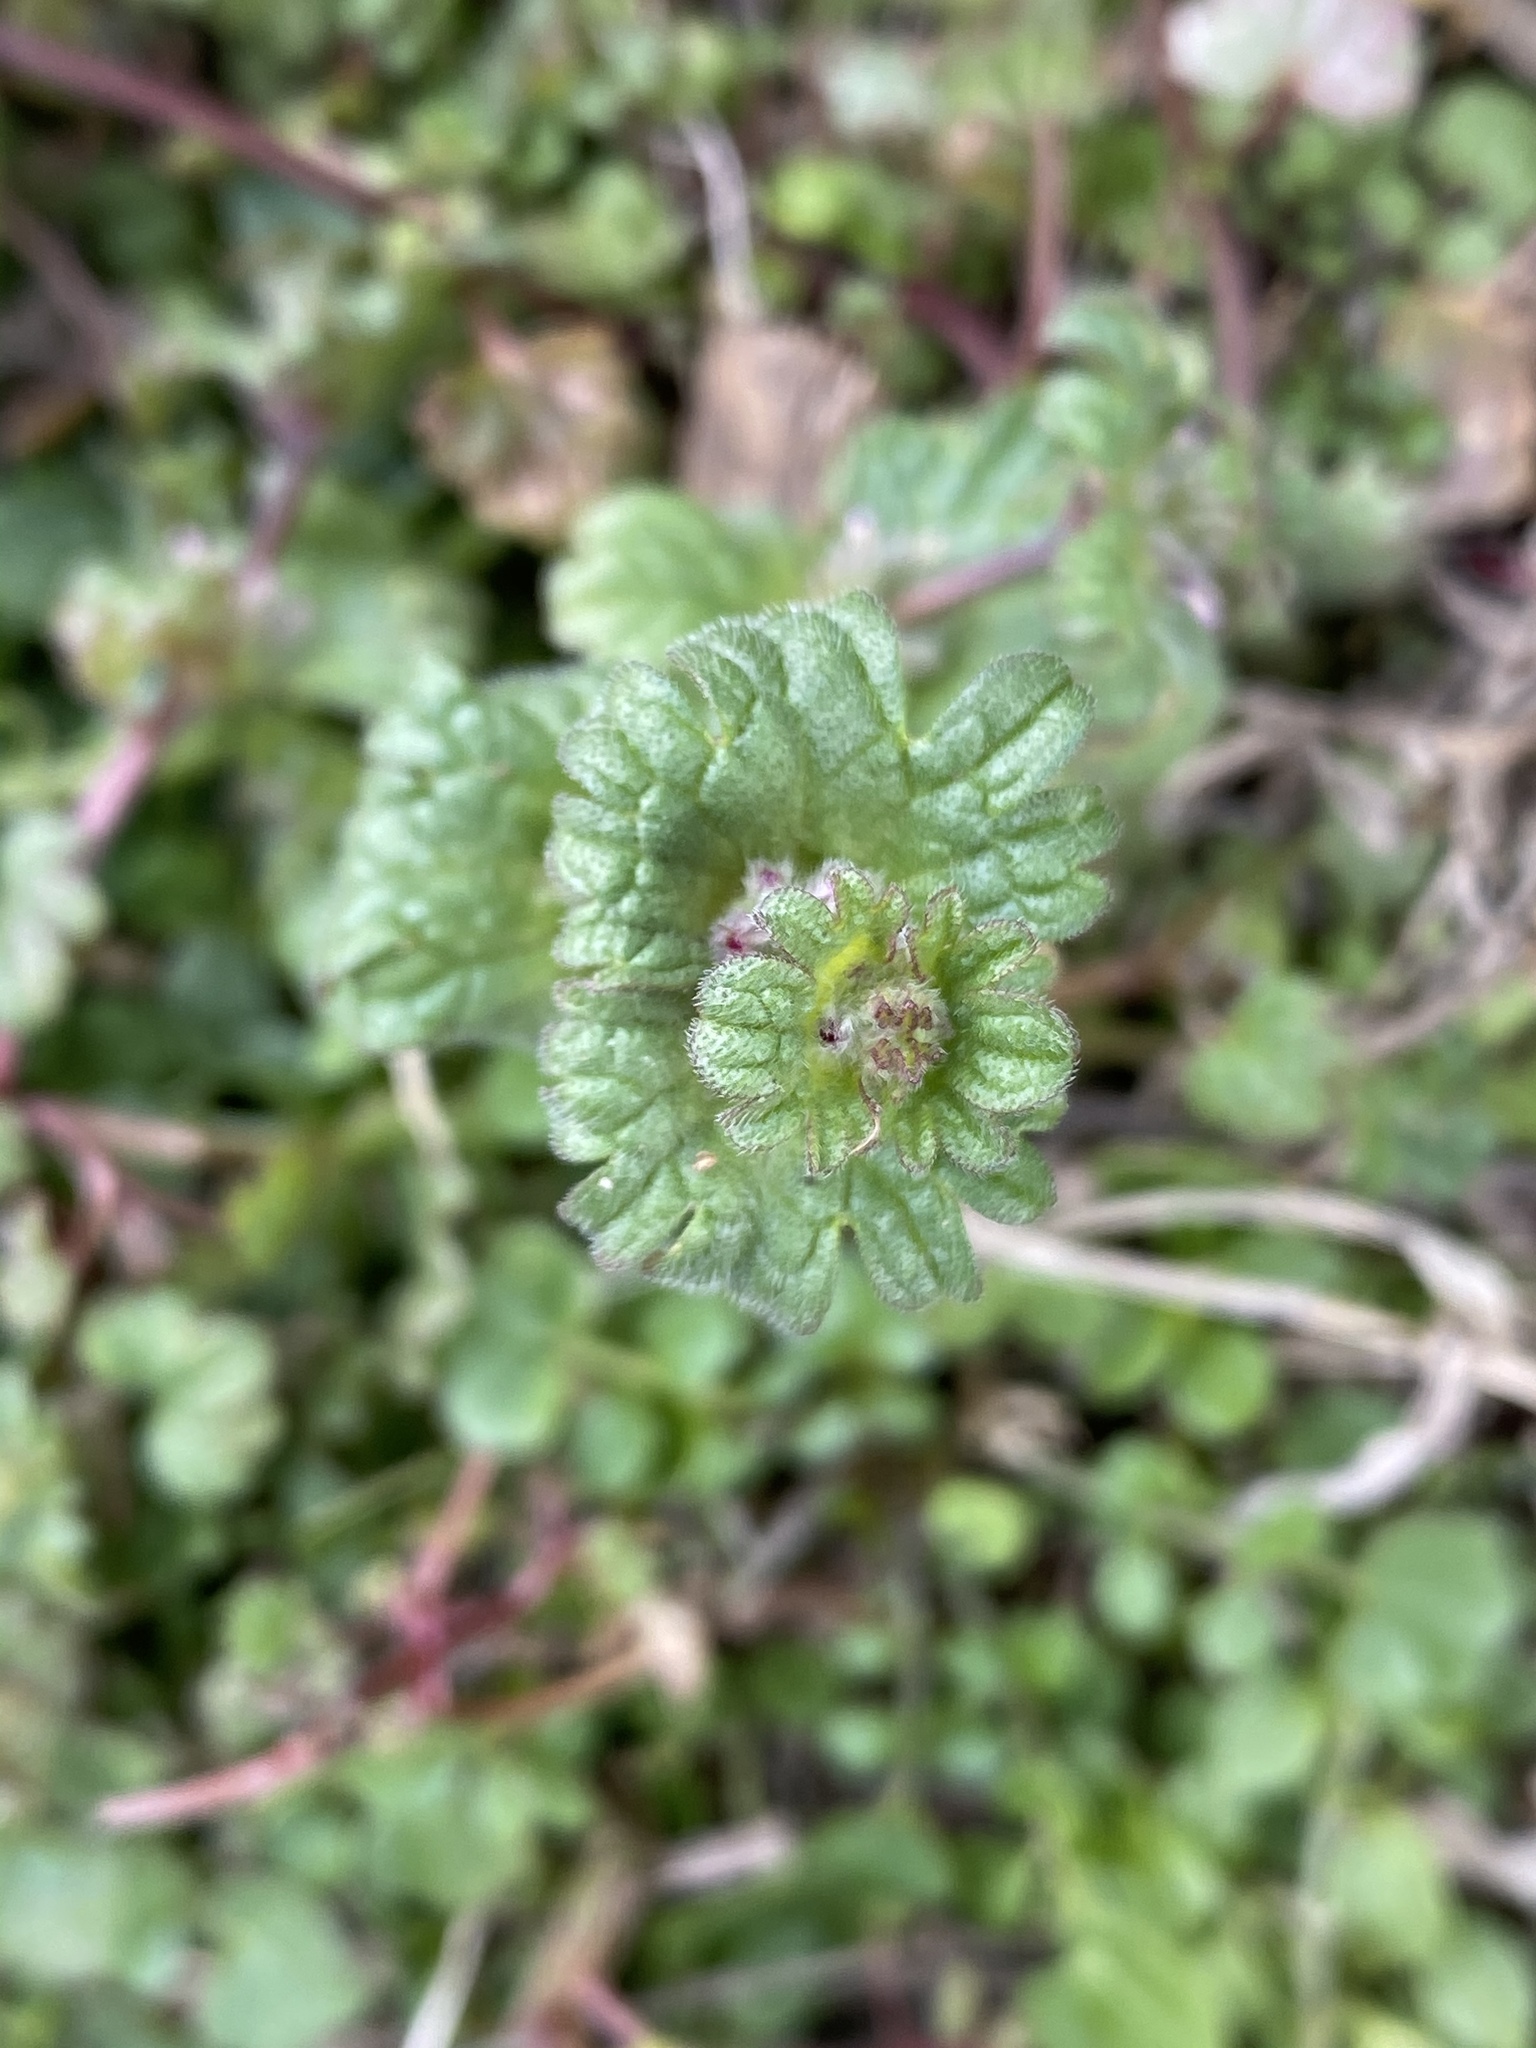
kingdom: Plantae
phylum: Tracheophyta
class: Magnoliopsida
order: Lamiales
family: Lamiaceae
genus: Lamium
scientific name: Lamium amplexicaule
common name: Henbit dead-nettle
